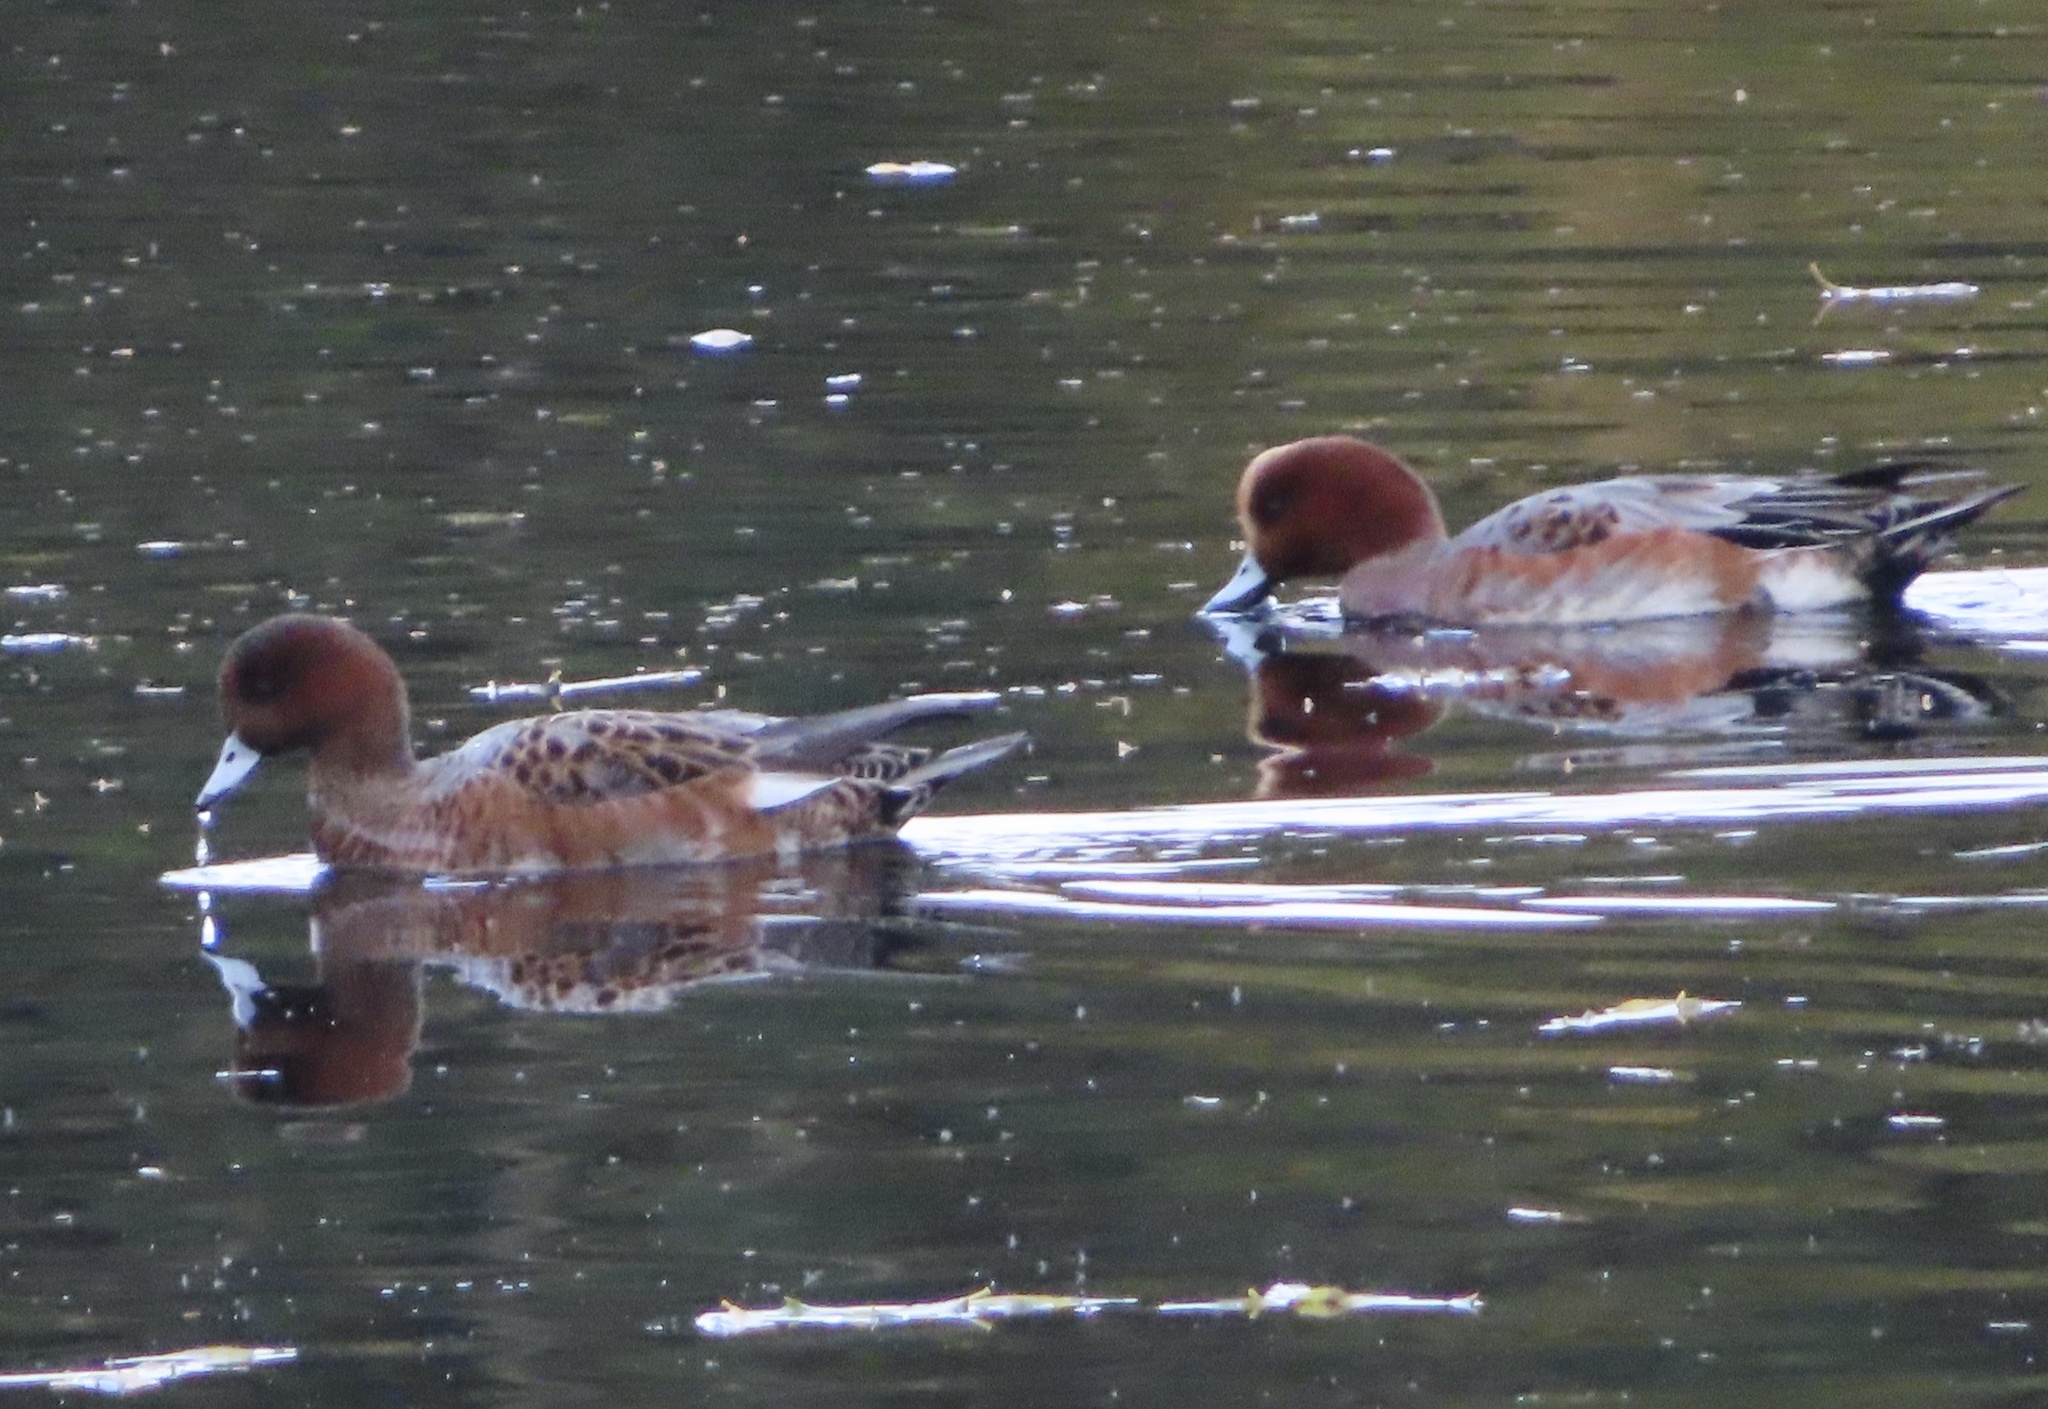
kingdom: Animalia
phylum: Chordata
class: Aves
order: Anseriformes
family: Anatidae
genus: Mareca
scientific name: Mareca penelope
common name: Eurasian wigeon
